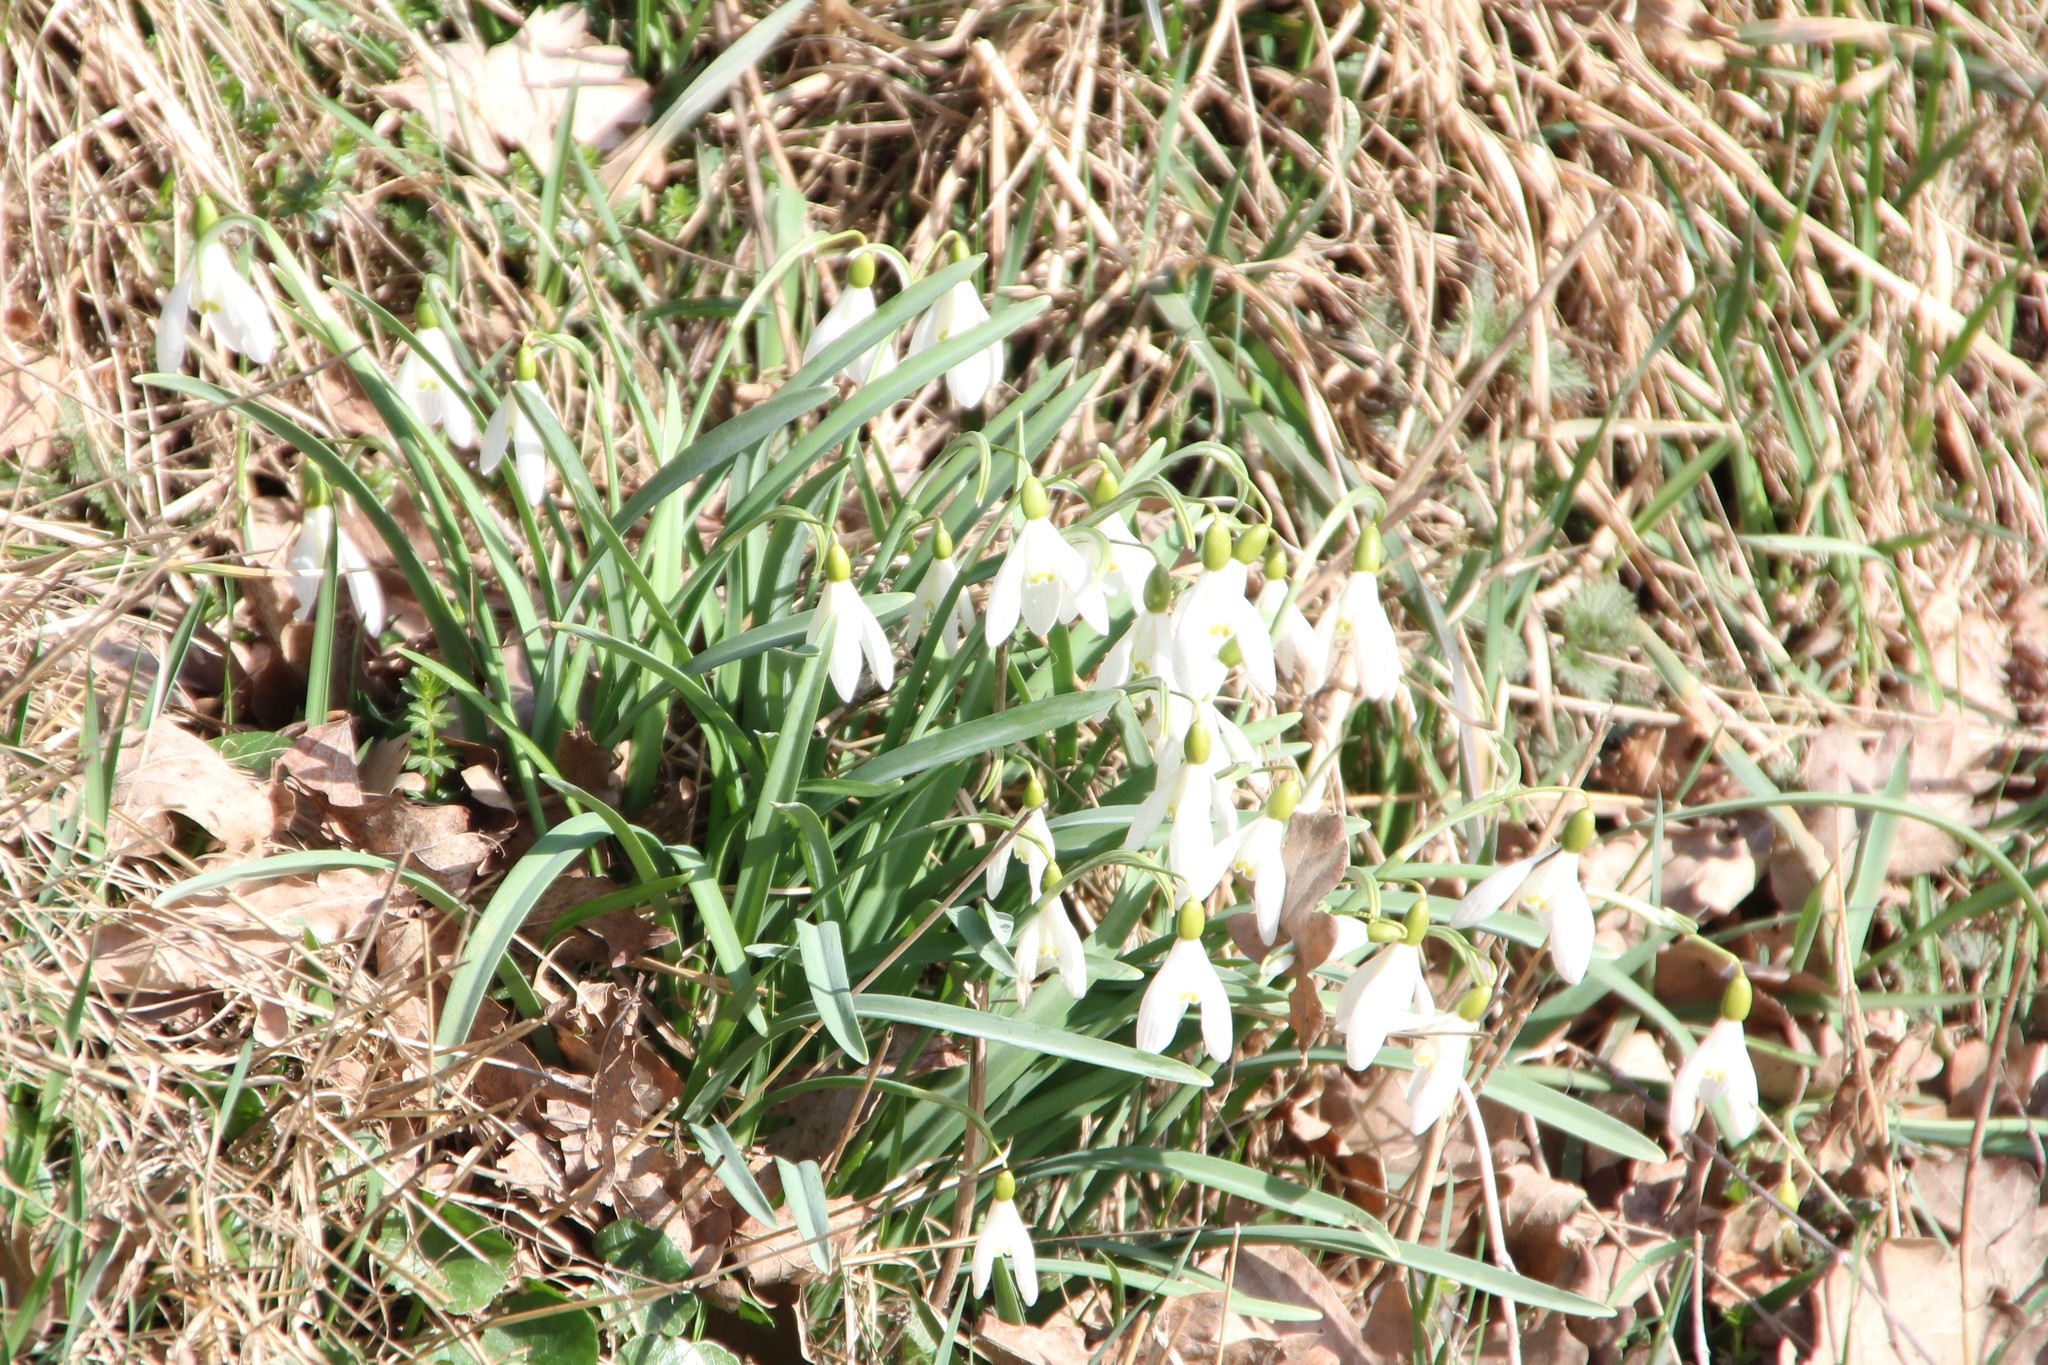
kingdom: Plantae
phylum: Tracheophyta
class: Liliopsida
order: Asparagales
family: Amaryllidaceae
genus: Galanthus
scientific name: Galanthus nivalis
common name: Snowdrop
